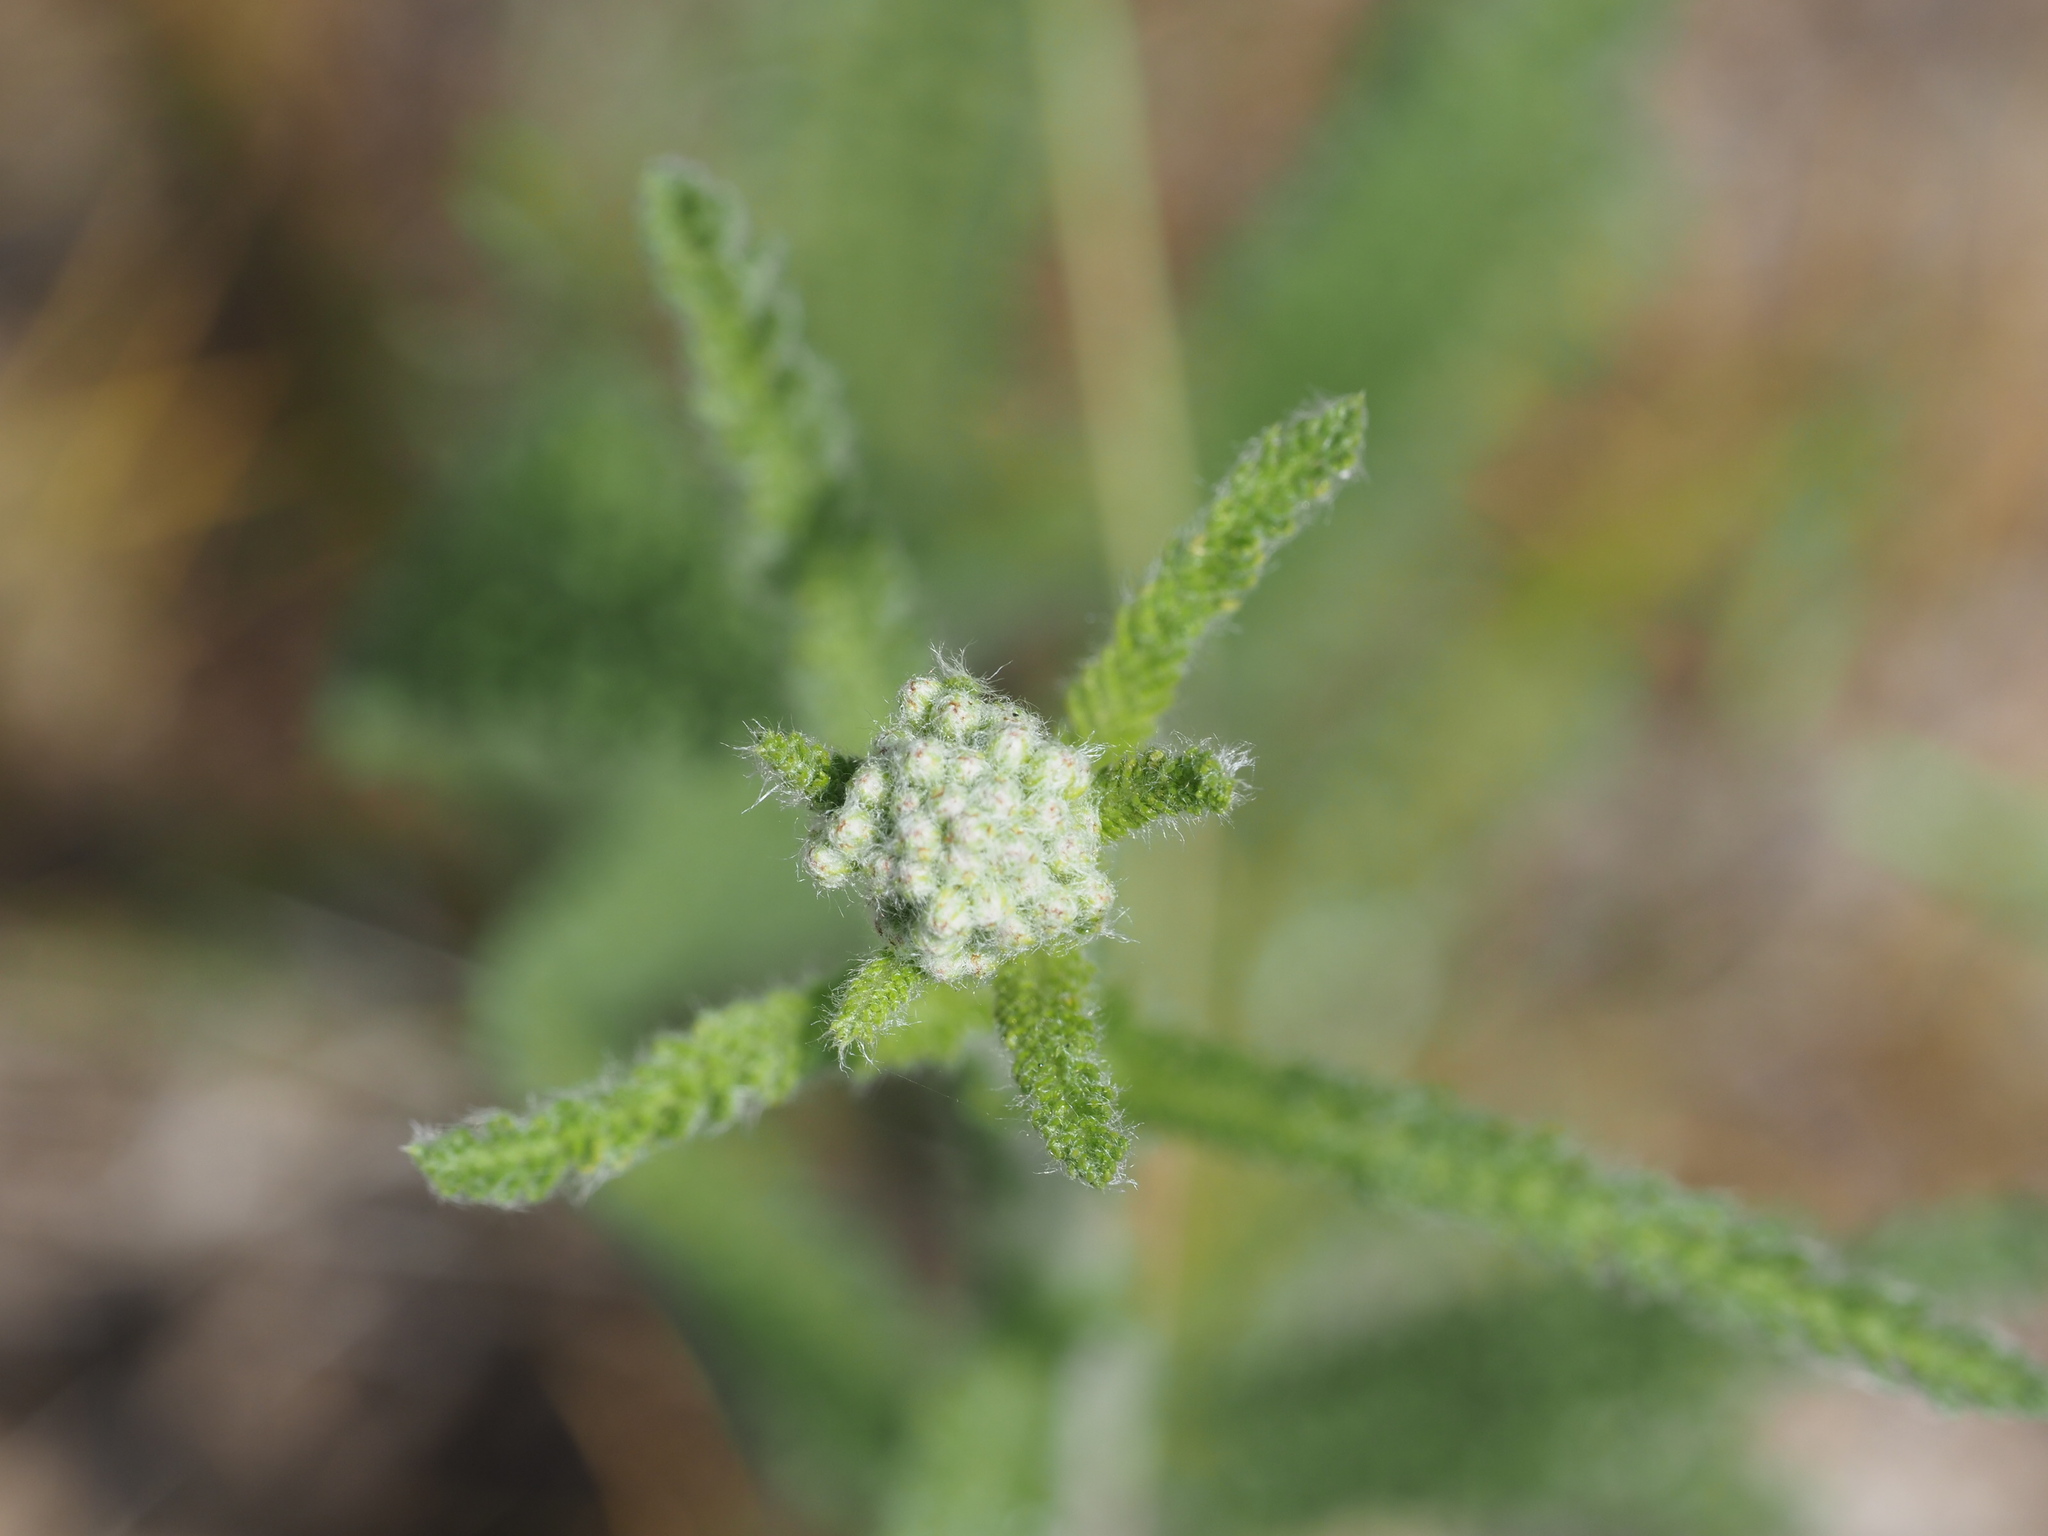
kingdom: Plantae
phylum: Tracheophyta
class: Magnoliopsida
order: Asterales
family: Asteraceae
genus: Achillea
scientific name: Achillea millefolium
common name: Yarrow
